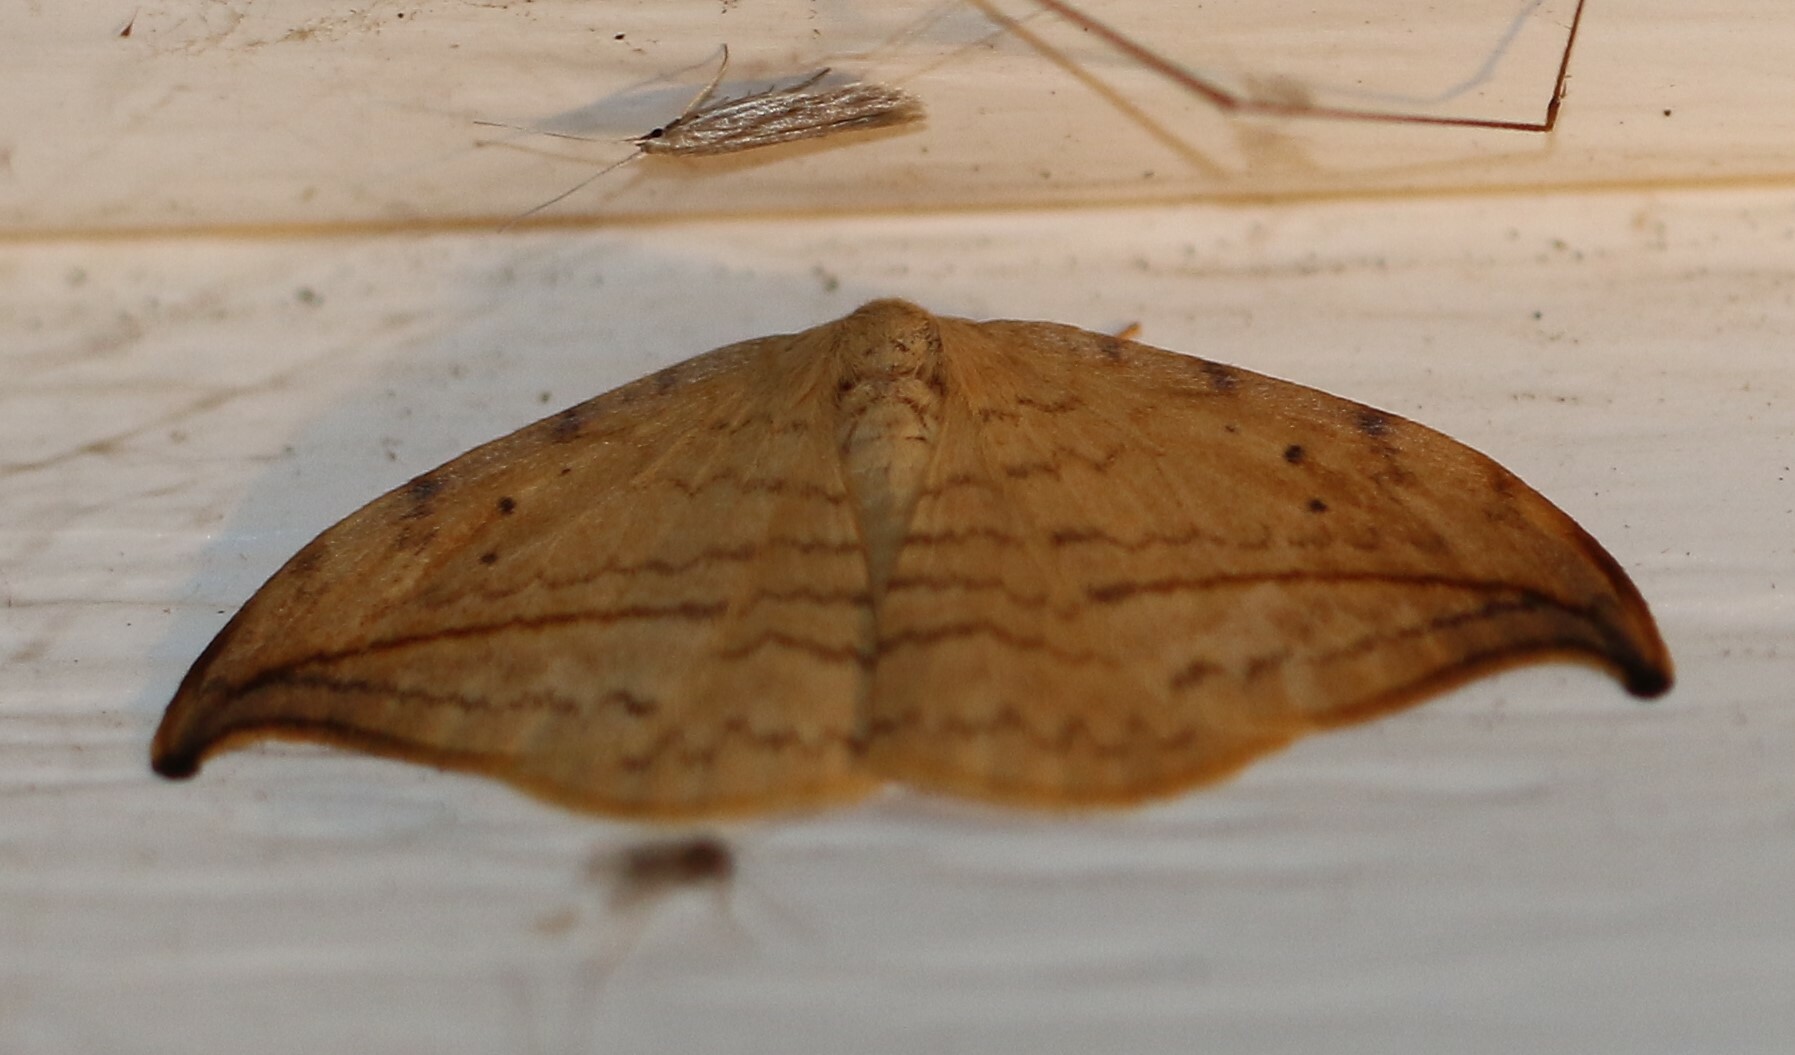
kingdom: Animalia
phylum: Arthropoda
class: Insecta
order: Lepidoptera
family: Drepanidae
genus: Drepana
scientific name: Drepana arcuata
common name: Arched hooktip moth
